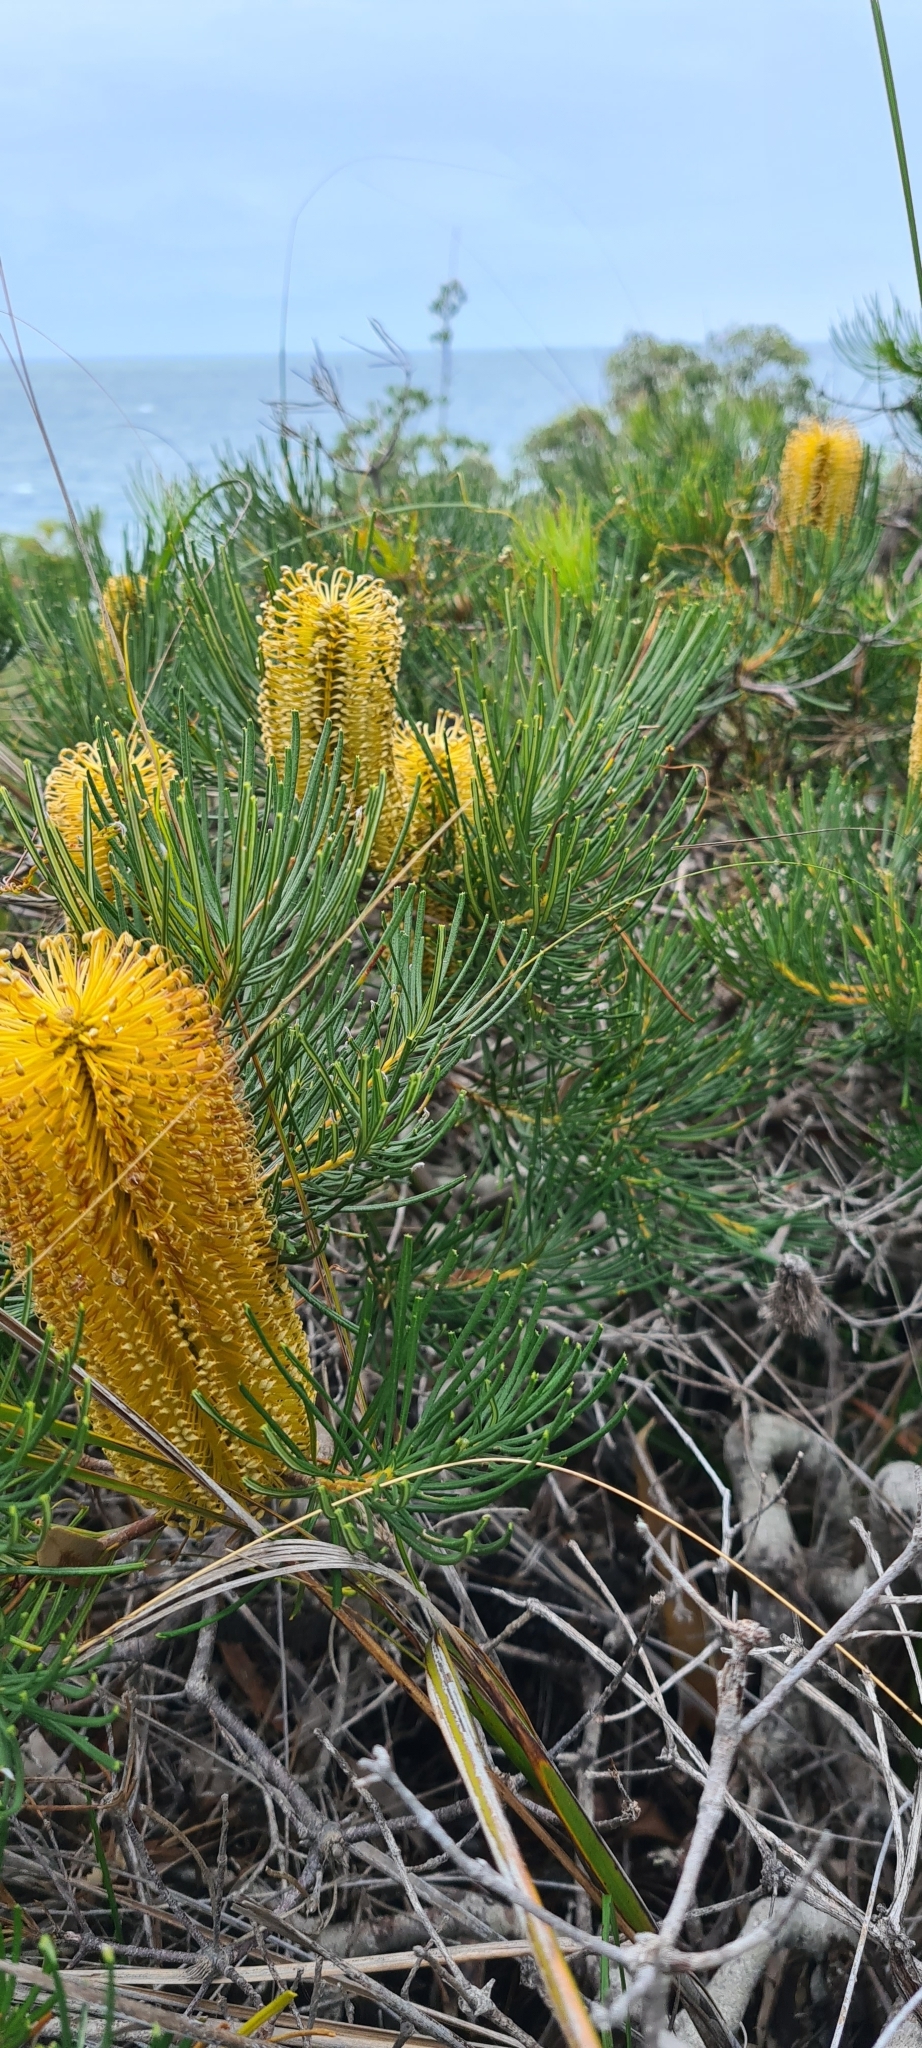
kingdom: Plantae
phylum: Tracheophyta
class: Magnoliopsida
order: Proteales
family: Proteaceae
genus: Banksia
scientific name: Banksia spinulosa
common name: Hairpin banksia
